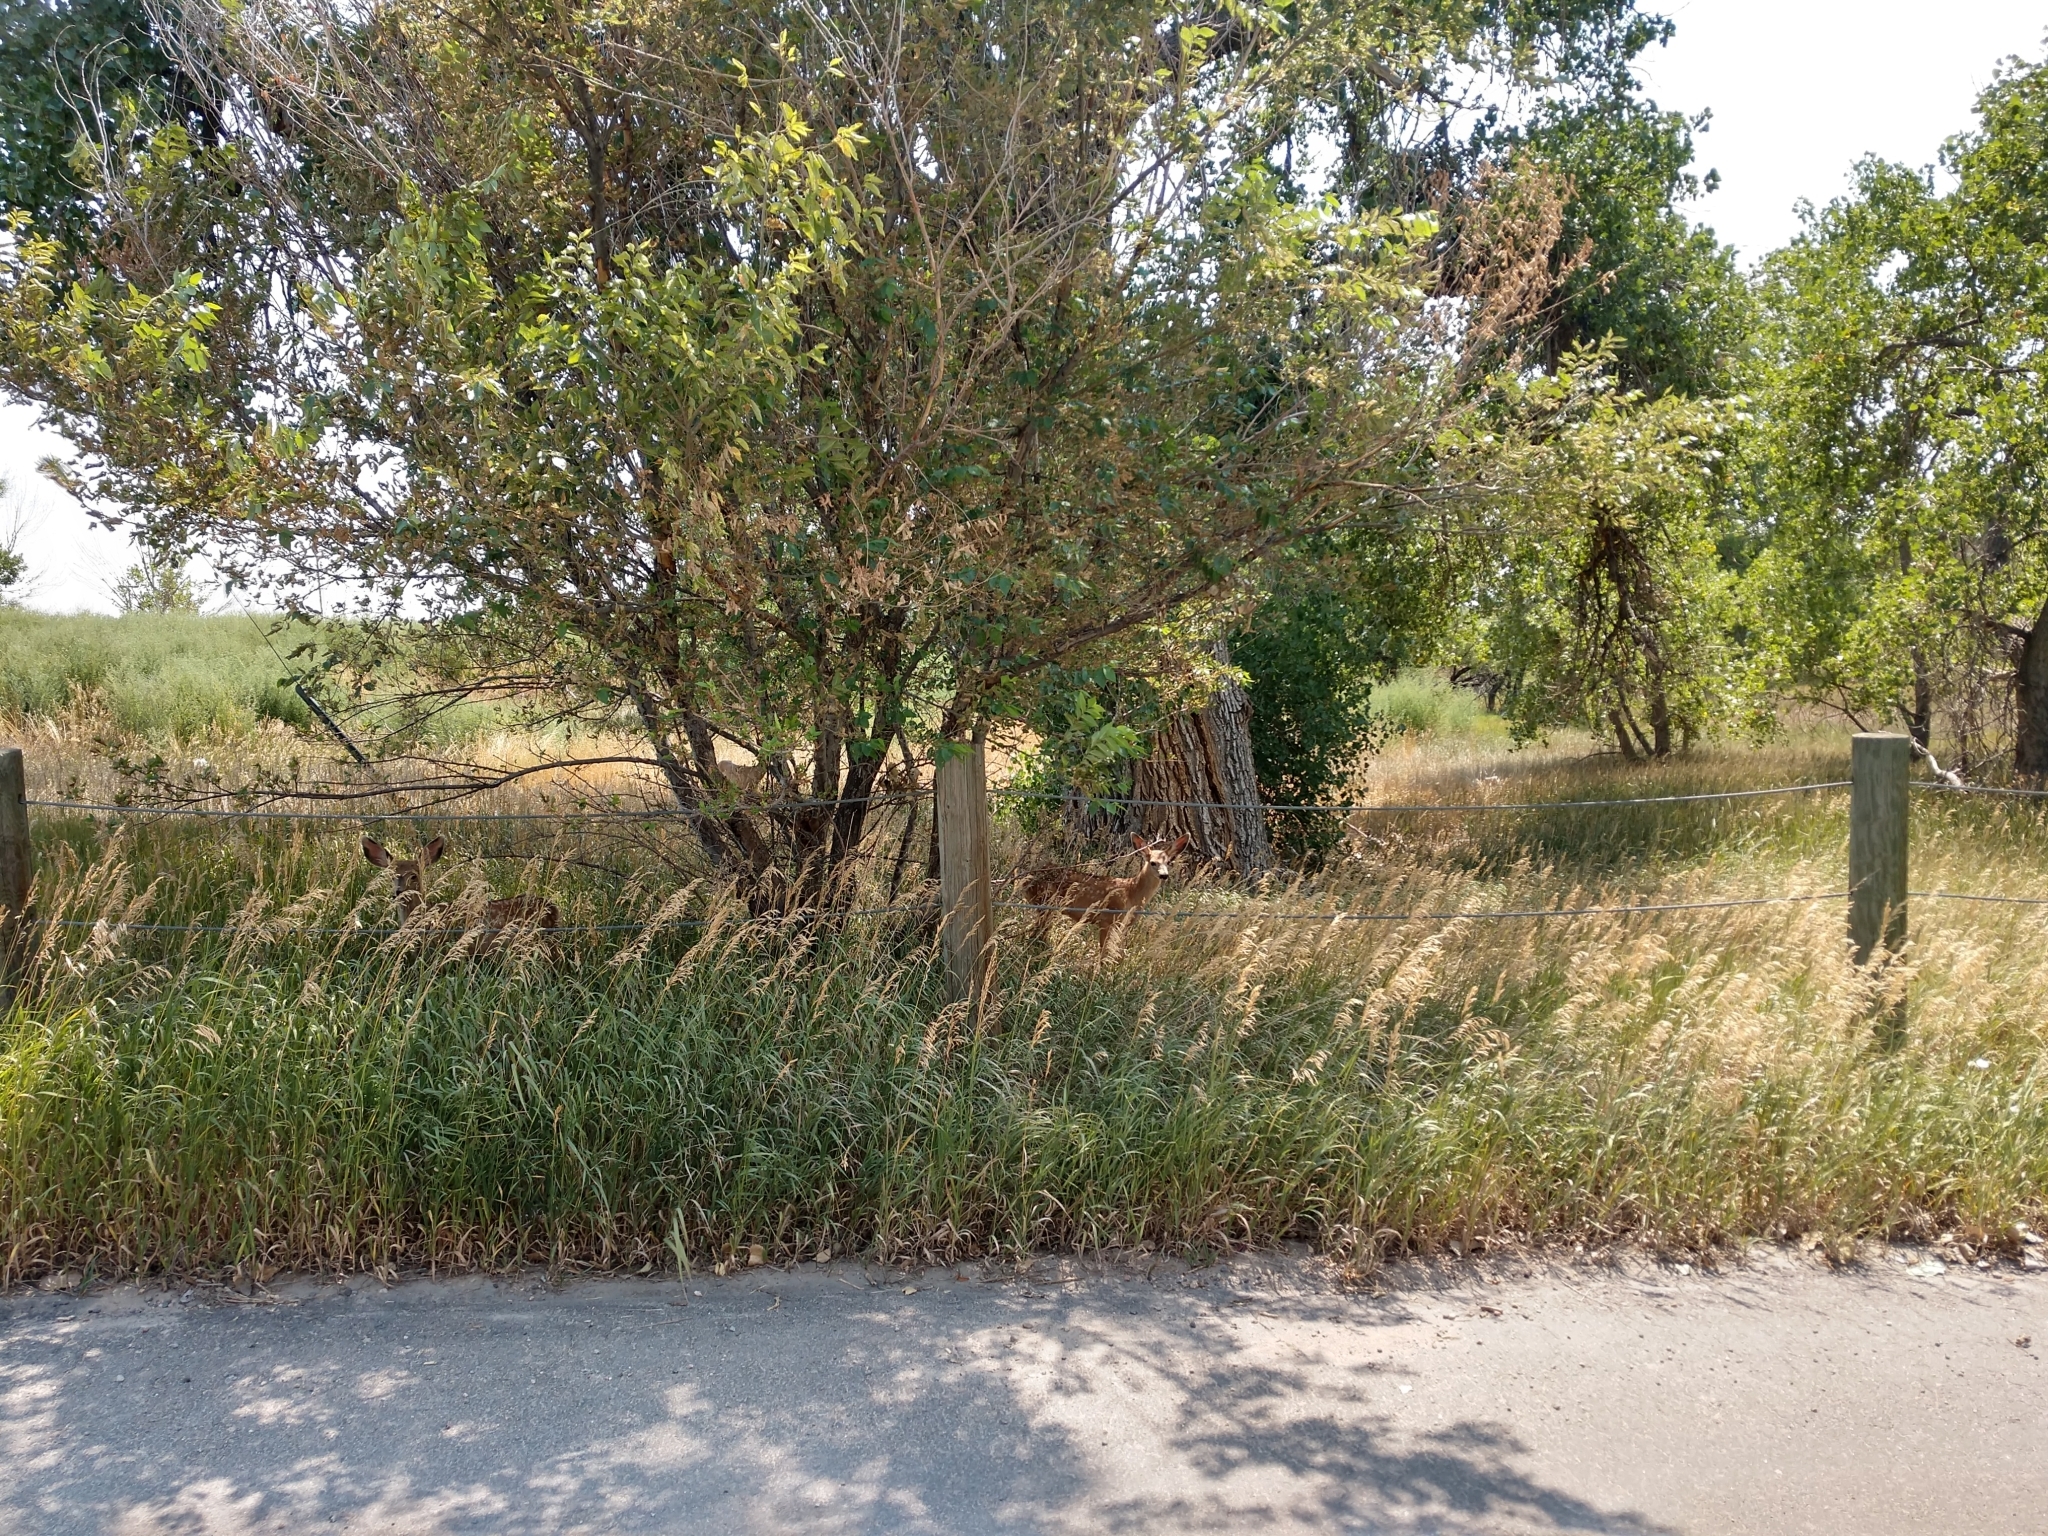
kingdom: Animalia
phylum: Chordata
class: Mammalia
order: Artiodactyla
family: Cervidae
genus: Odocoileus
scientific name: Odocoileus hemionus
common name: Mule deer
